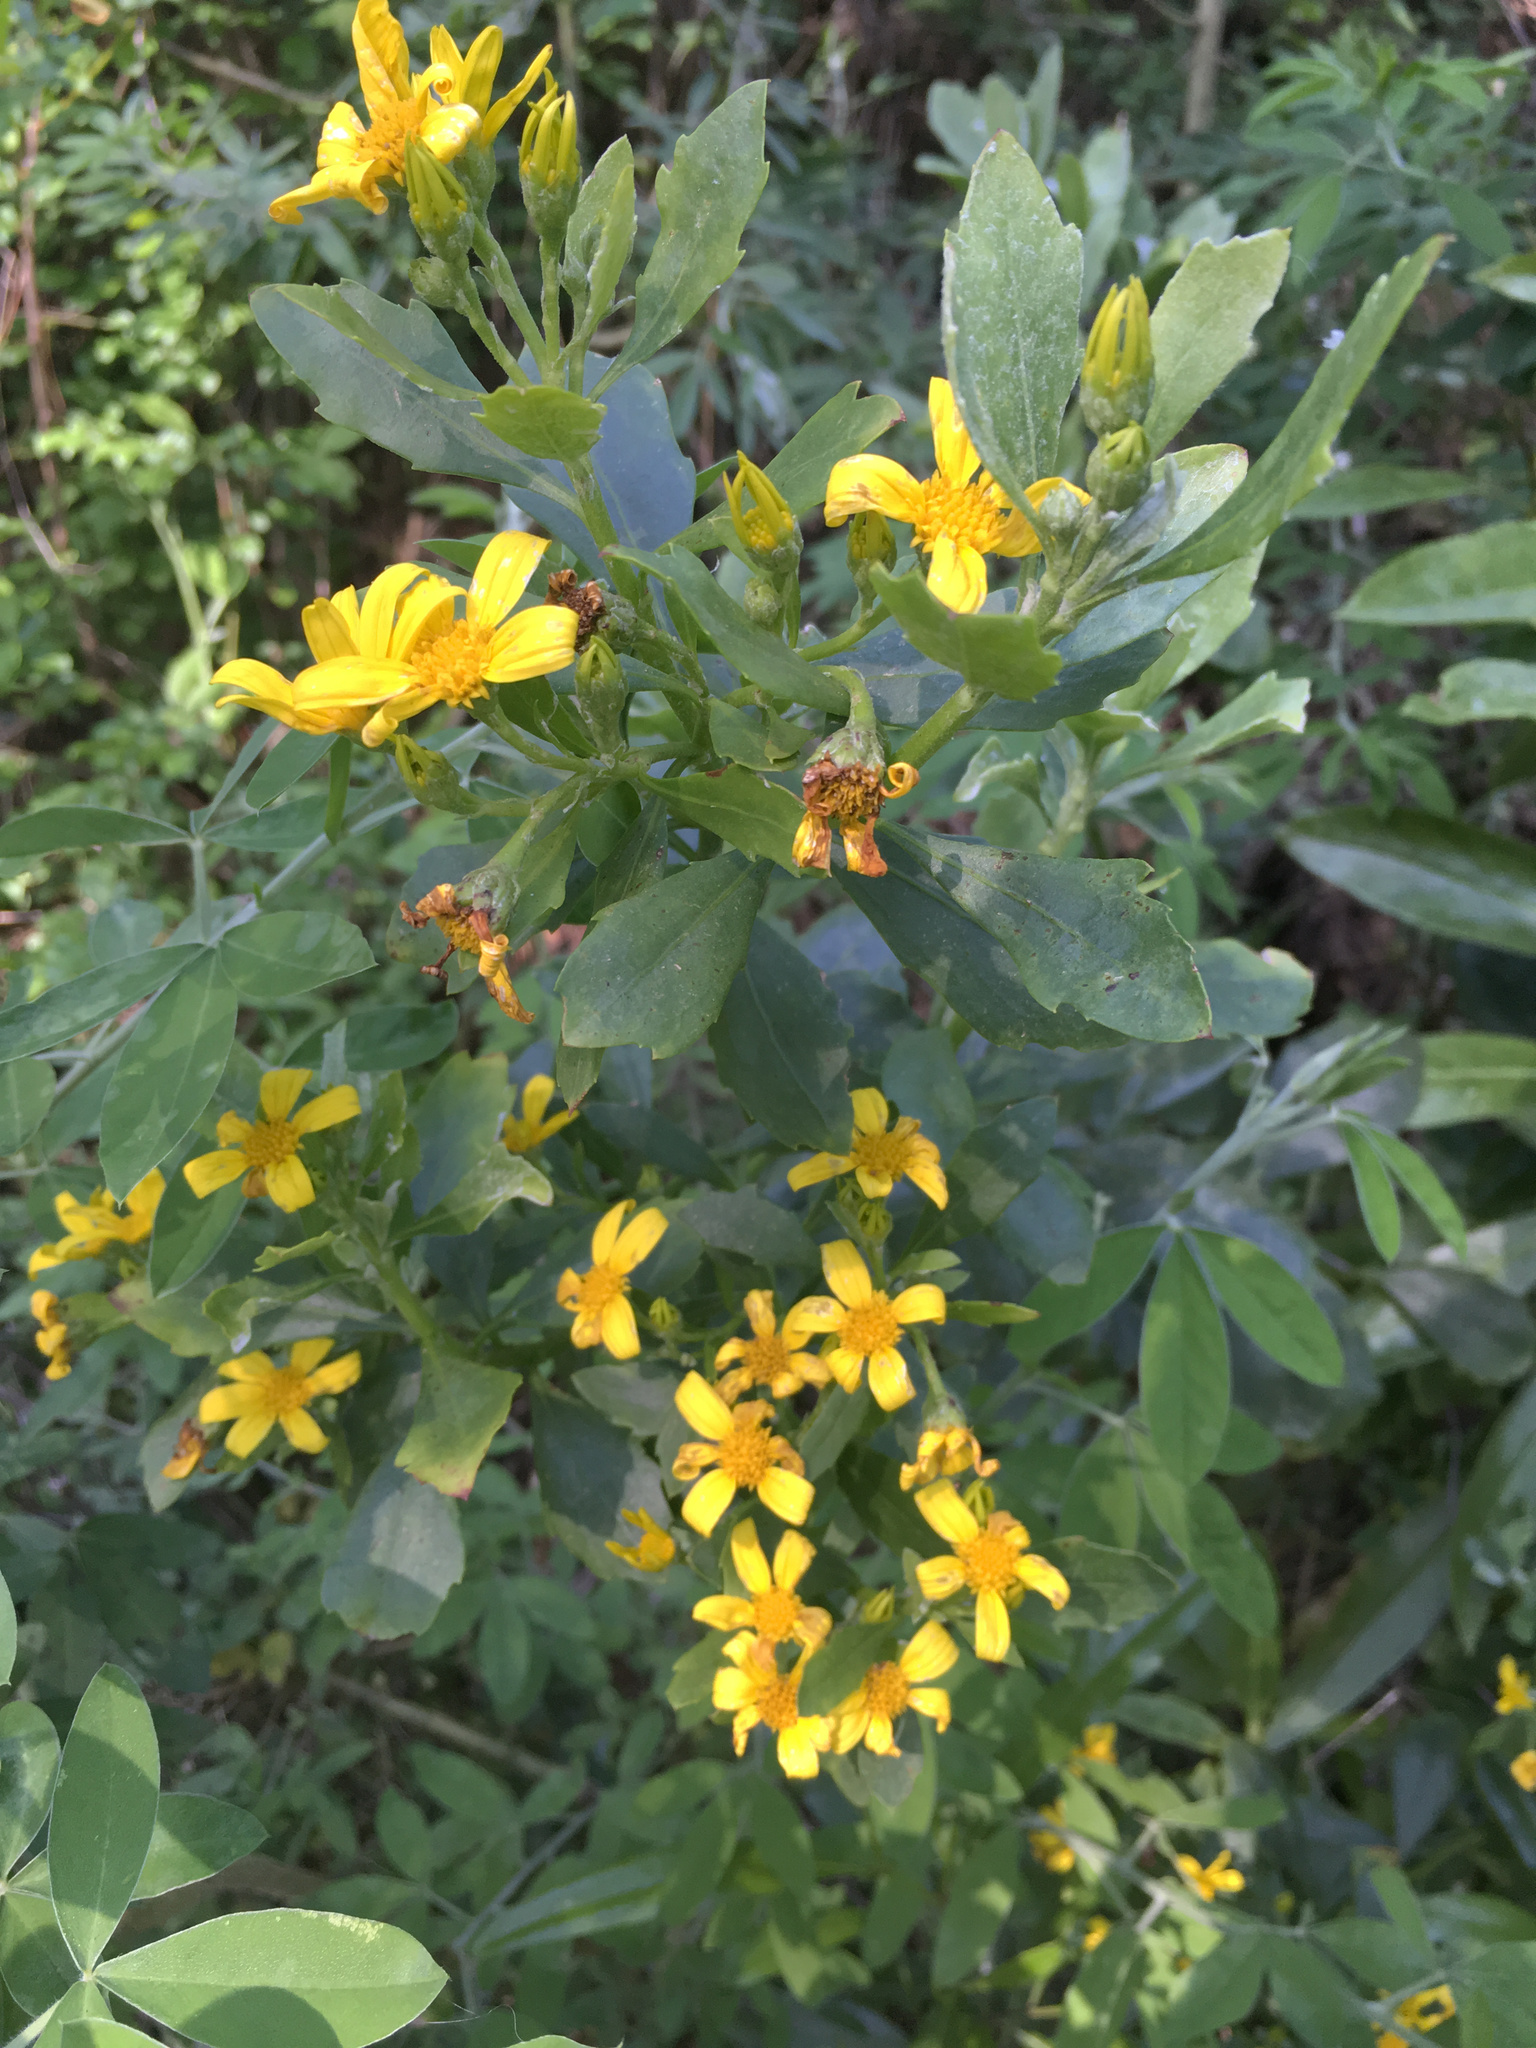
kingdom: Plantae
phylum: Tracheophyta
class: Magnoliopsida
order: Asterales
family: Asteraceae
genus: Osteospermum
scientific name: Osteospermum moniliferum
